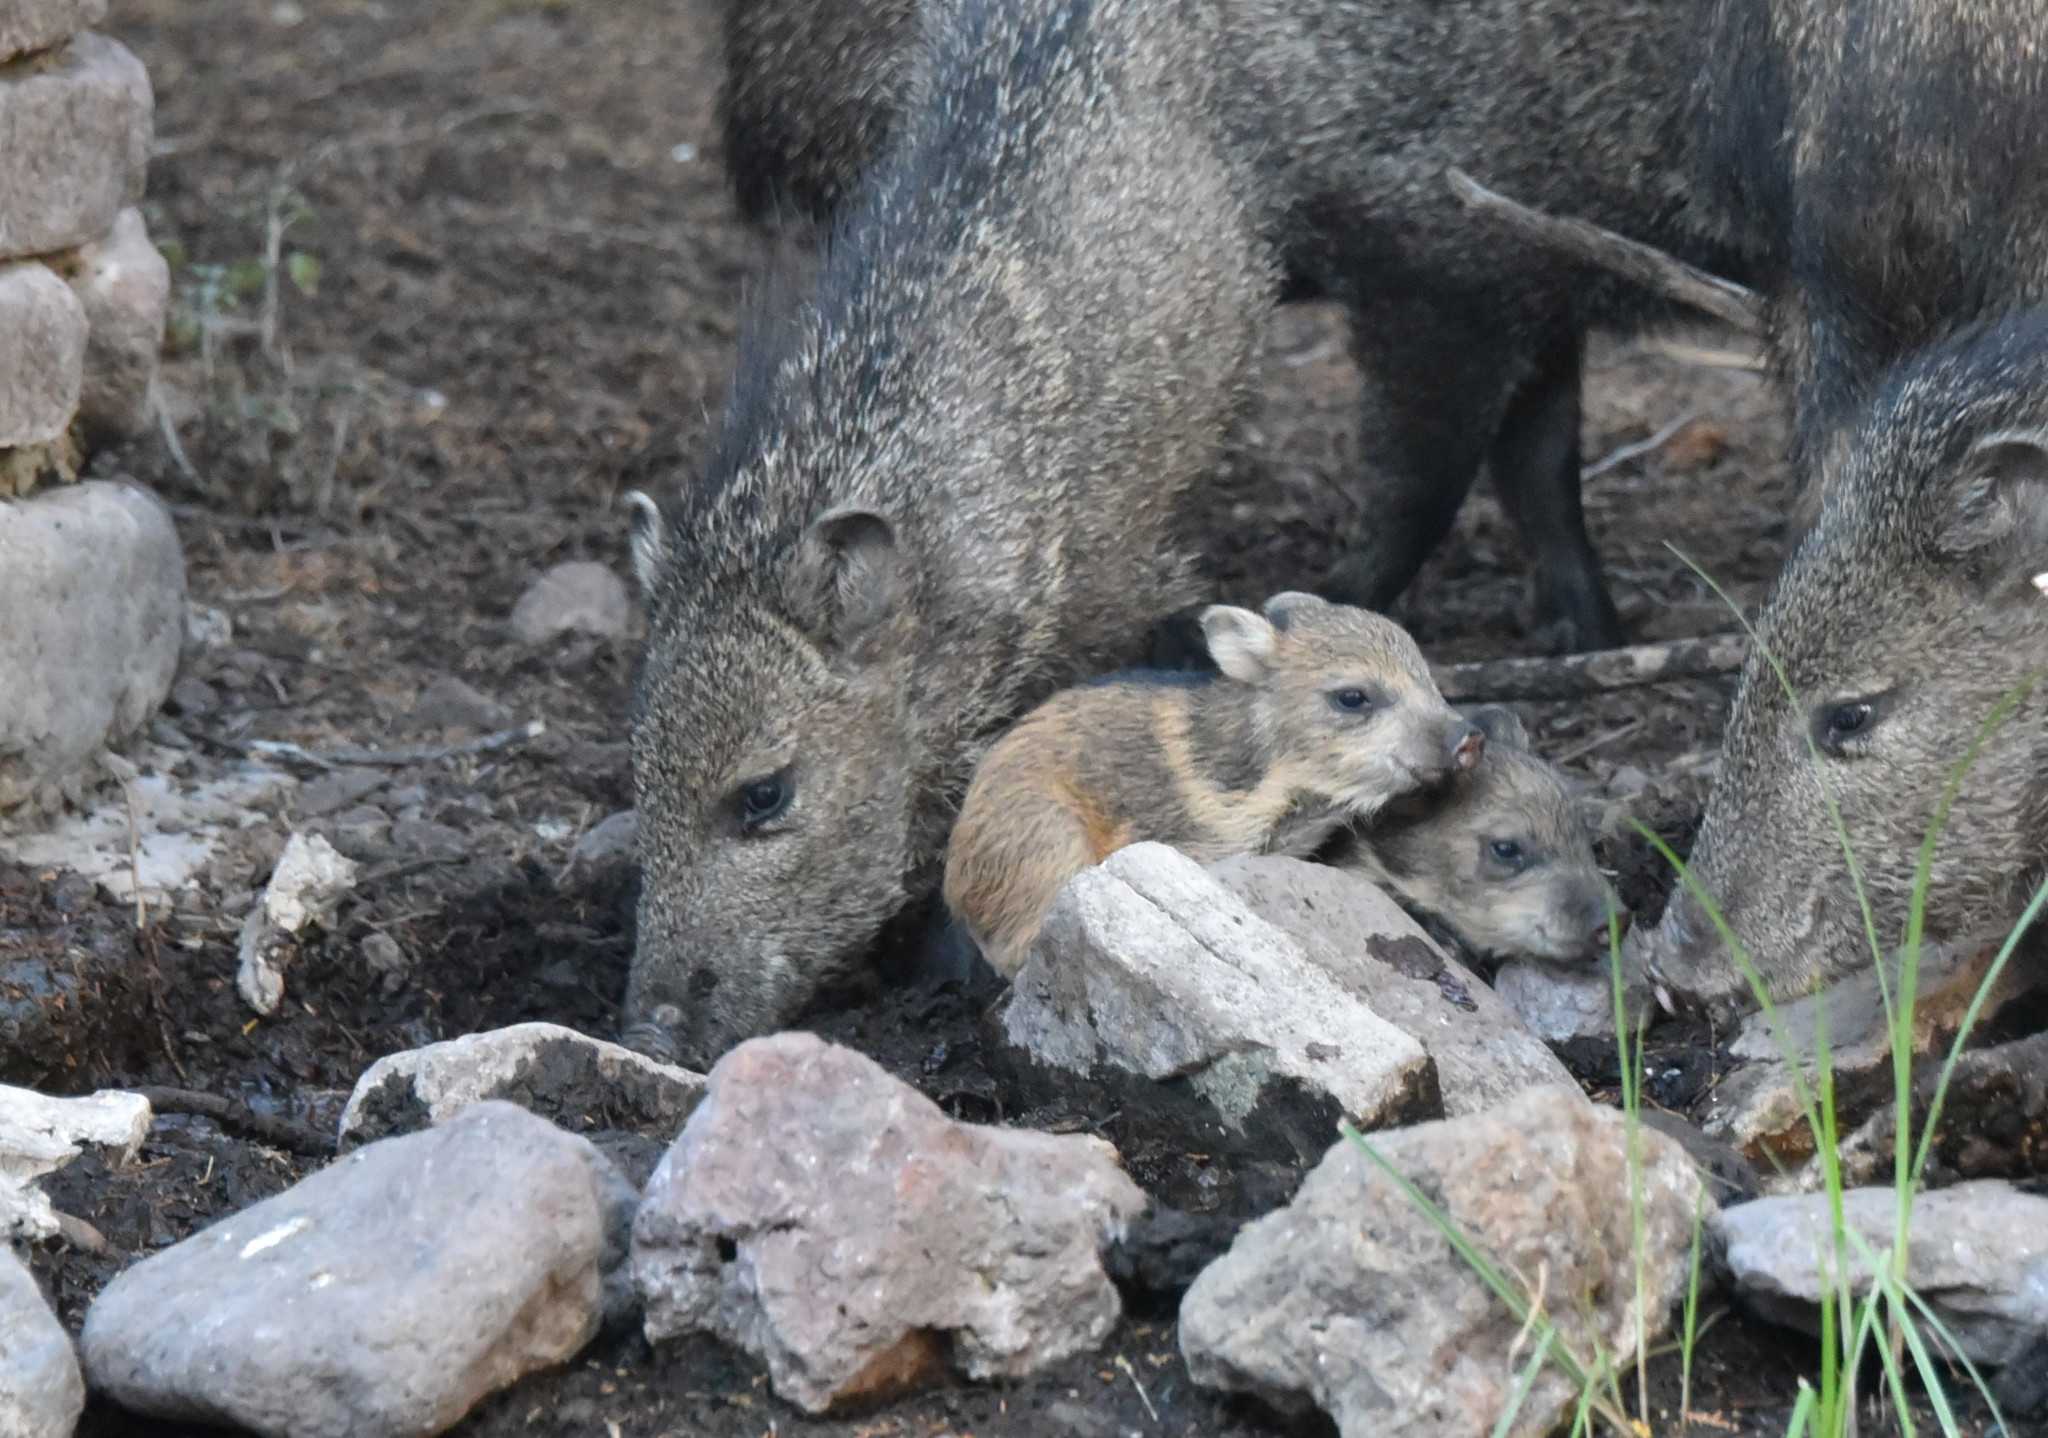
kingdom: Animalia
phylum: Chordata
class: Mammalia
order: Artiodactyla
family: Tayassuidae
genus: Pecari
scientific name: Pecari tajacu
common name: Collared peccary
